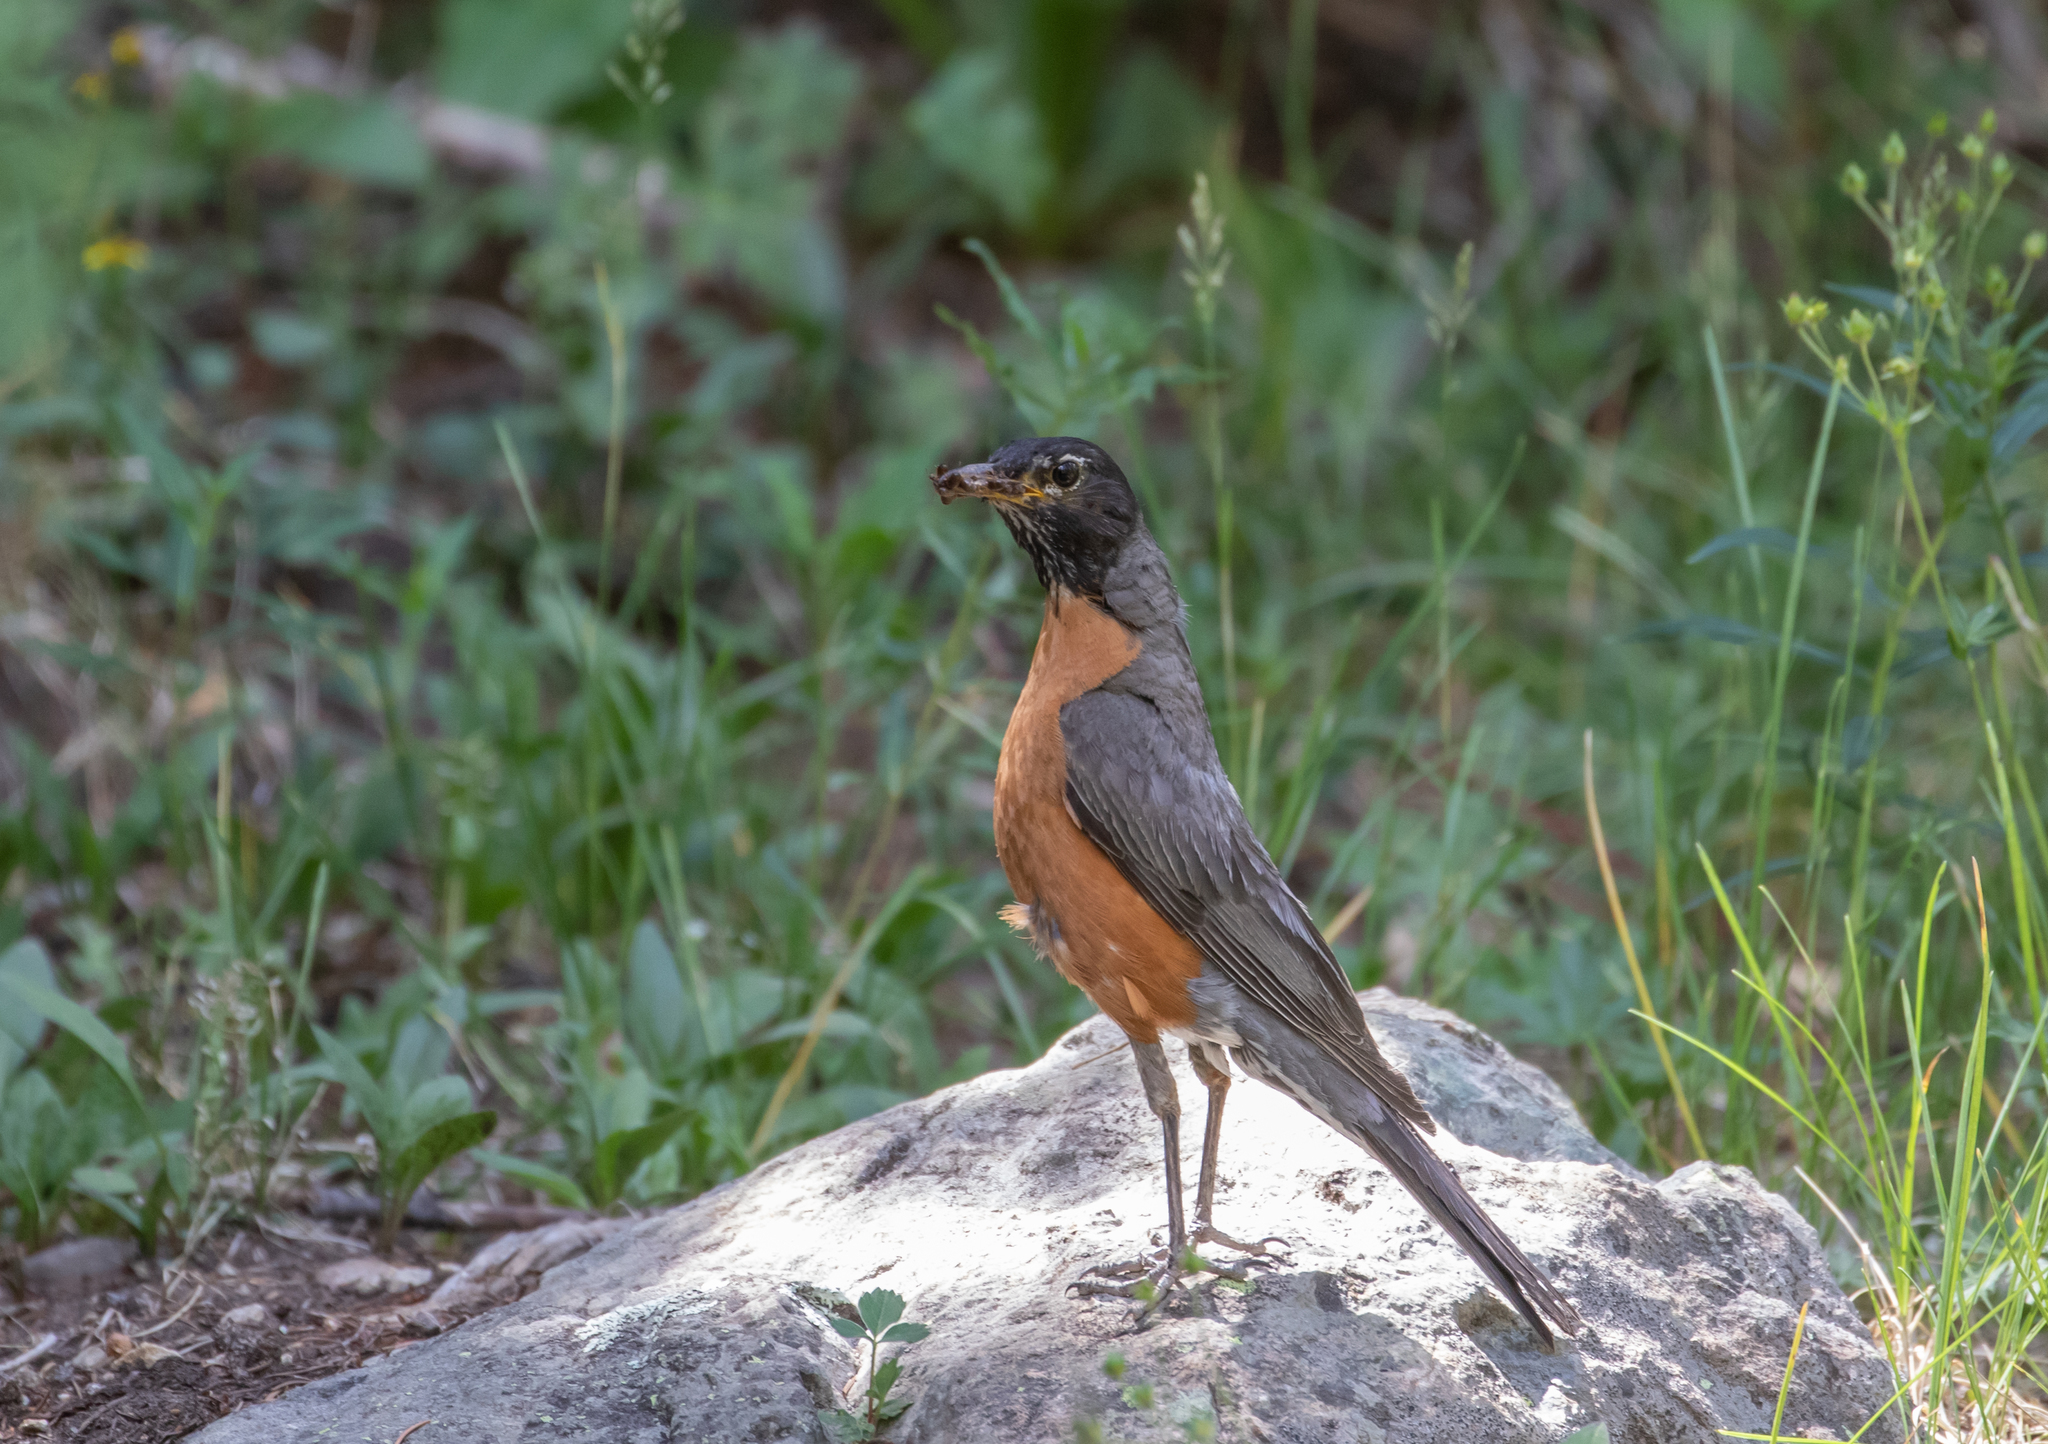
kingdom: Animalia
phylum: Chordata
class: Aves
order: Passeriformes
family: Turdidae
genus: Turdus
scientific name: Turdus migratorius
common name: American robin
